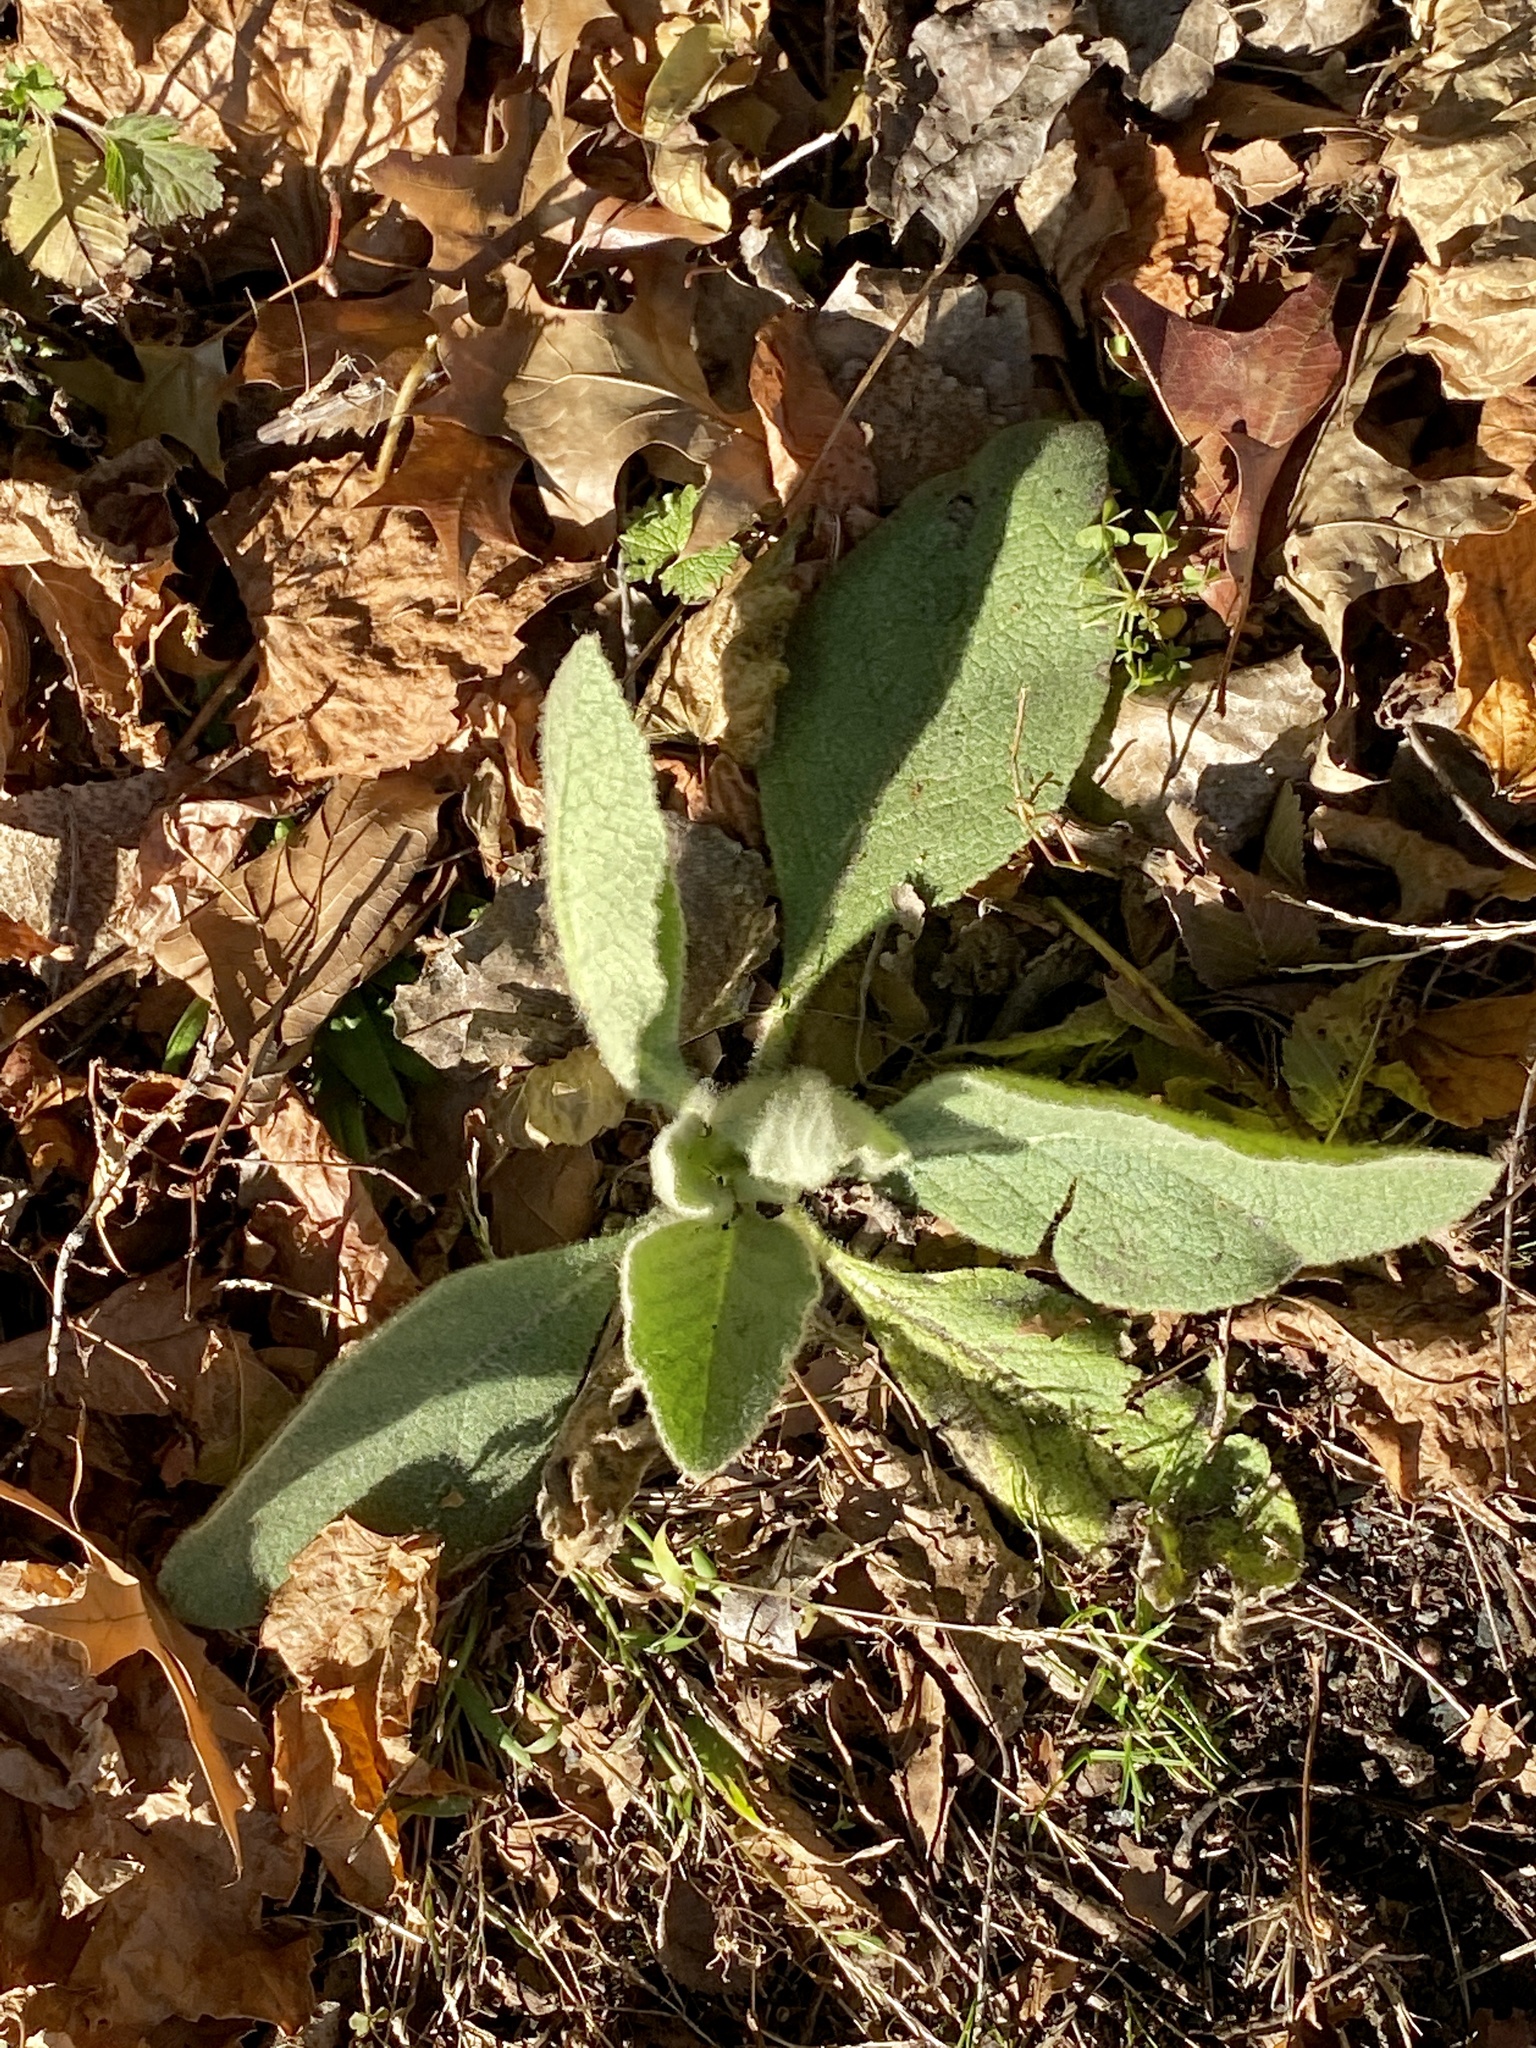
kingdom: Plantae
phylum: Tracheophyta
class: Magnoliopsida
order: Lamiales
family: Scrophulariaceae
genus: Verbascum
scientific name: Verbascum thapsus
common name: Common mullein
